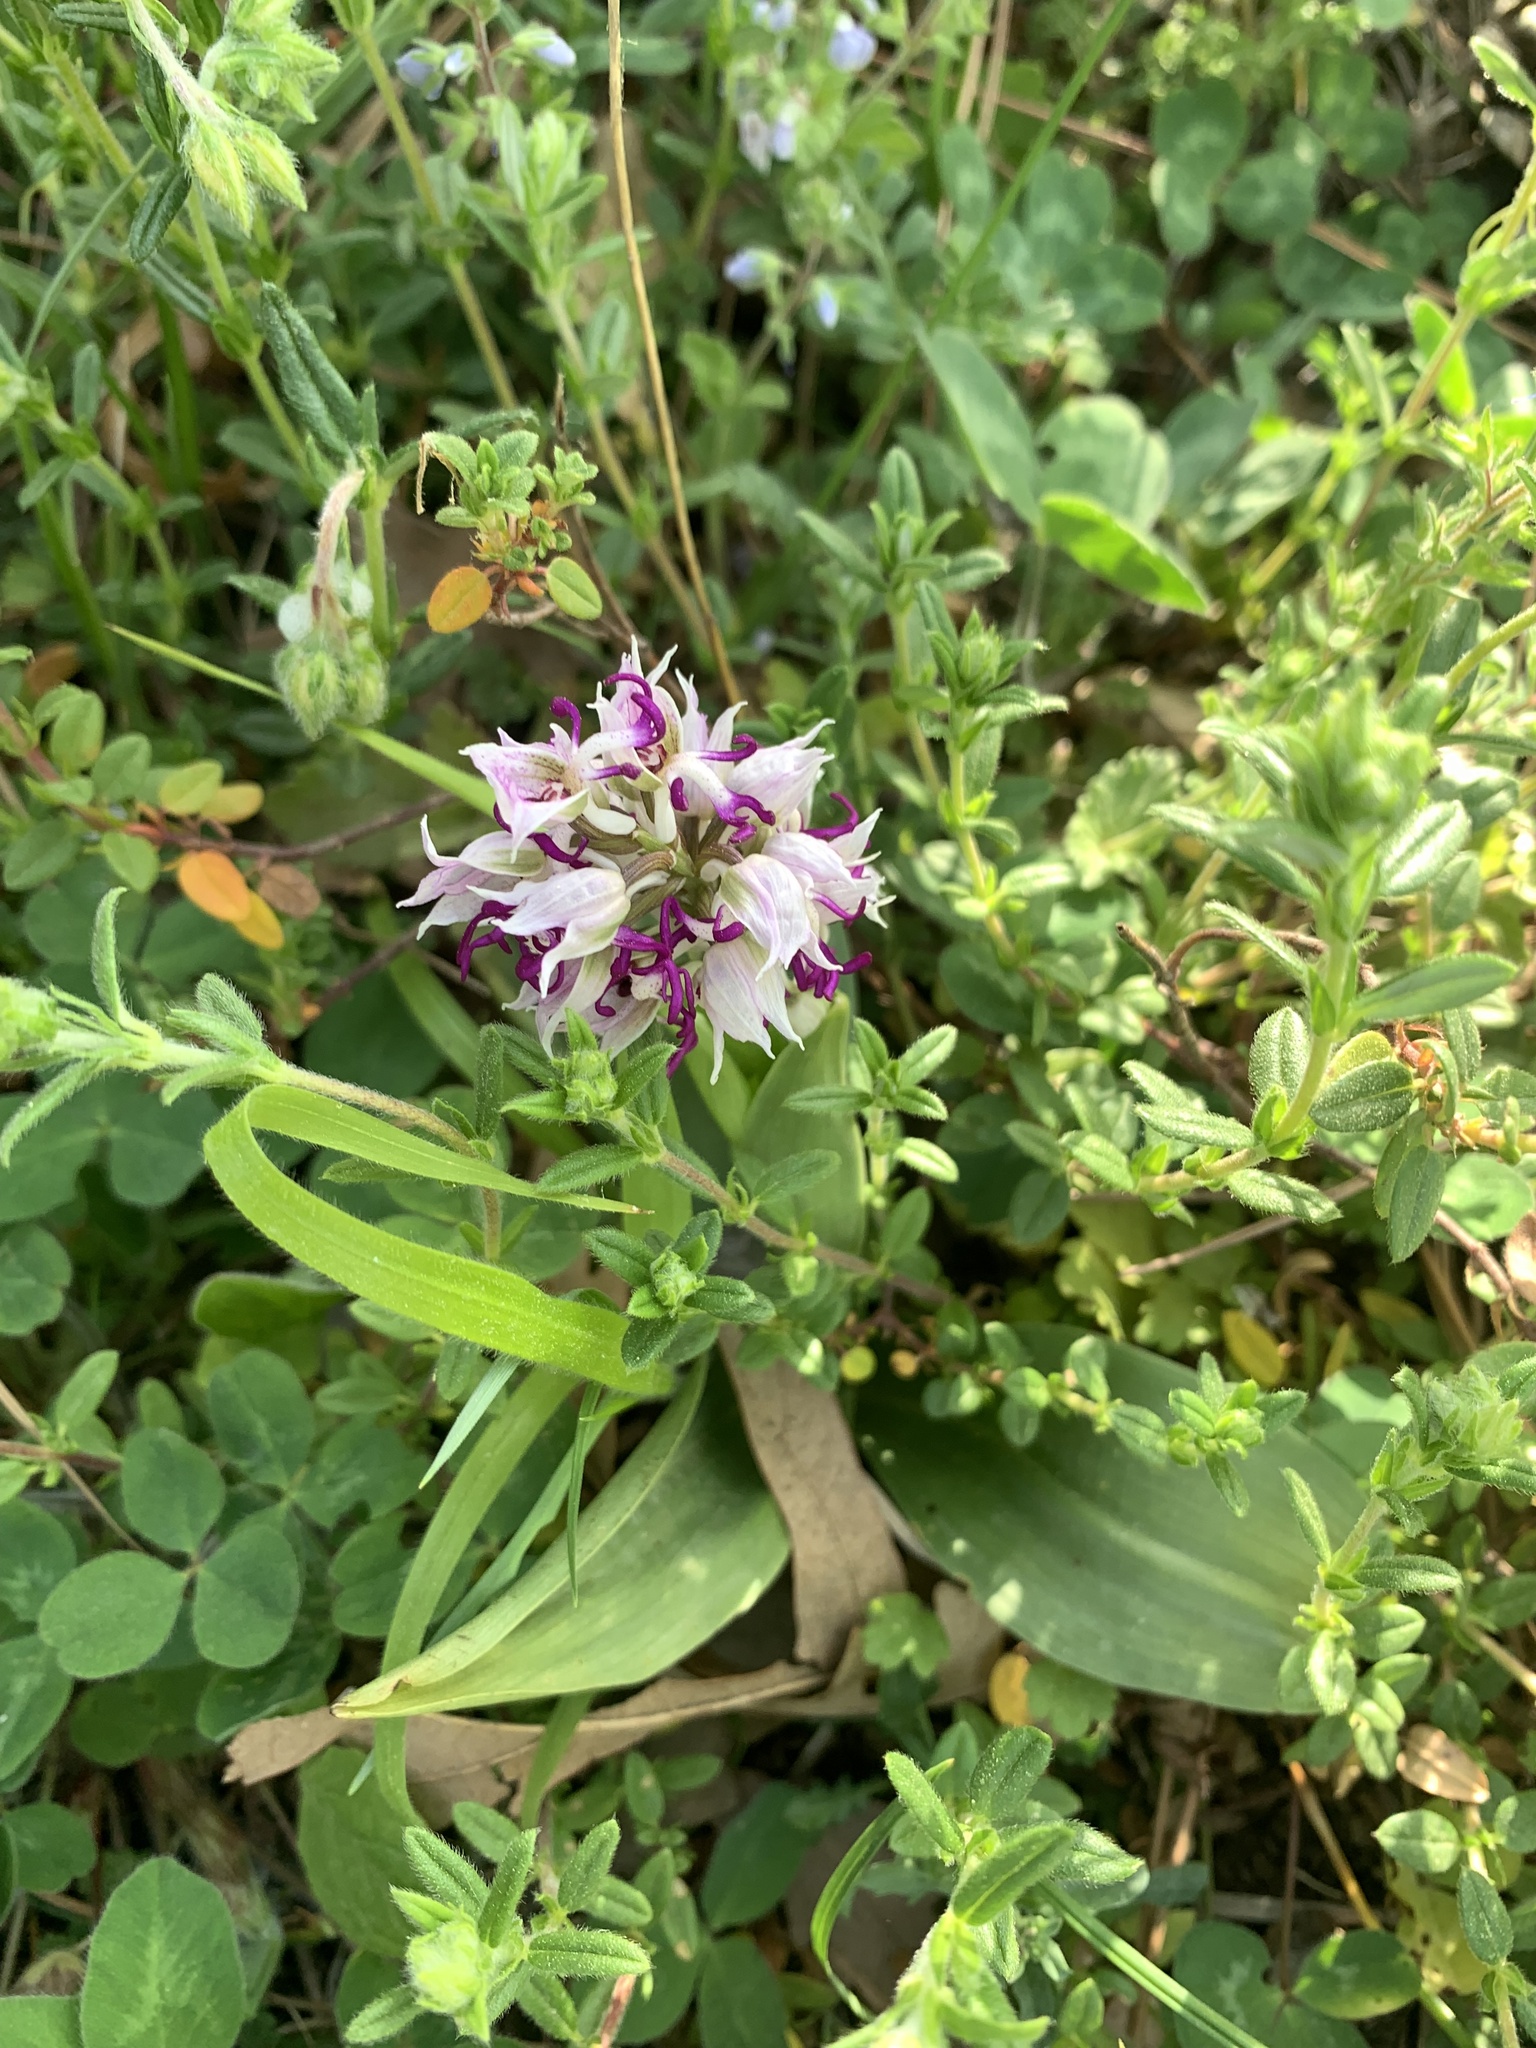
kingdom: Plantae
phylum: Tracheophyta
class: Liliopsida
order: Asparagales
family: Orchidaceae
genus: Orchis
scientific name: Orchis simia
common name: Monkey orchid
